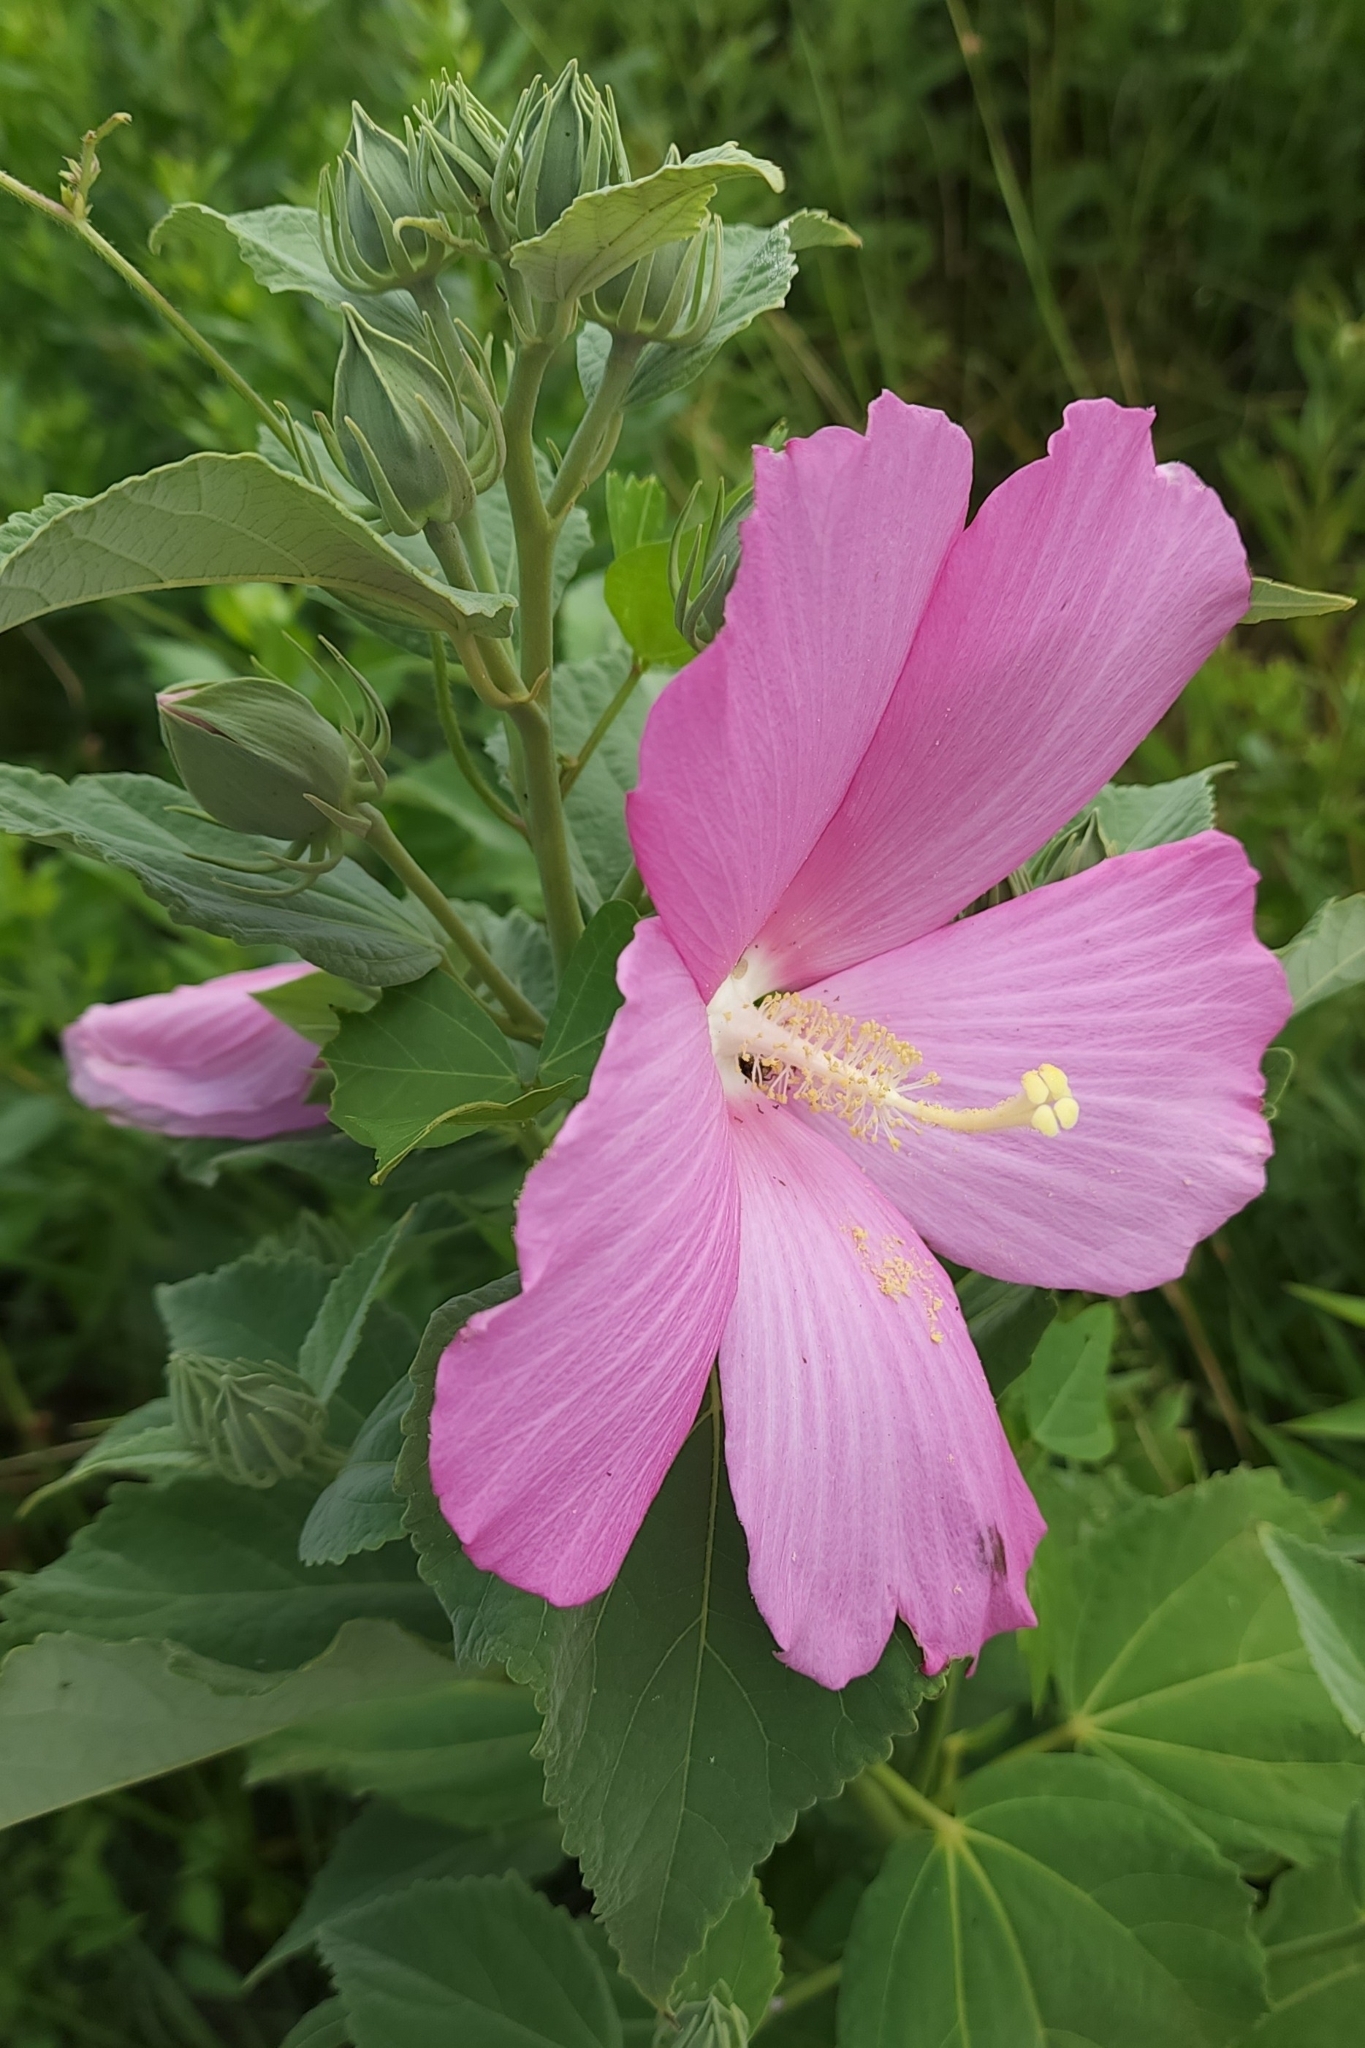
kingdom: Plantae
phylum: Tracheophyta
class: Magnoliopsida
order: Malvales
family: Malvaceae
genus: Hibiscus
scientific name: Hibiscus moscheutos
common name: Common rose-mallow
